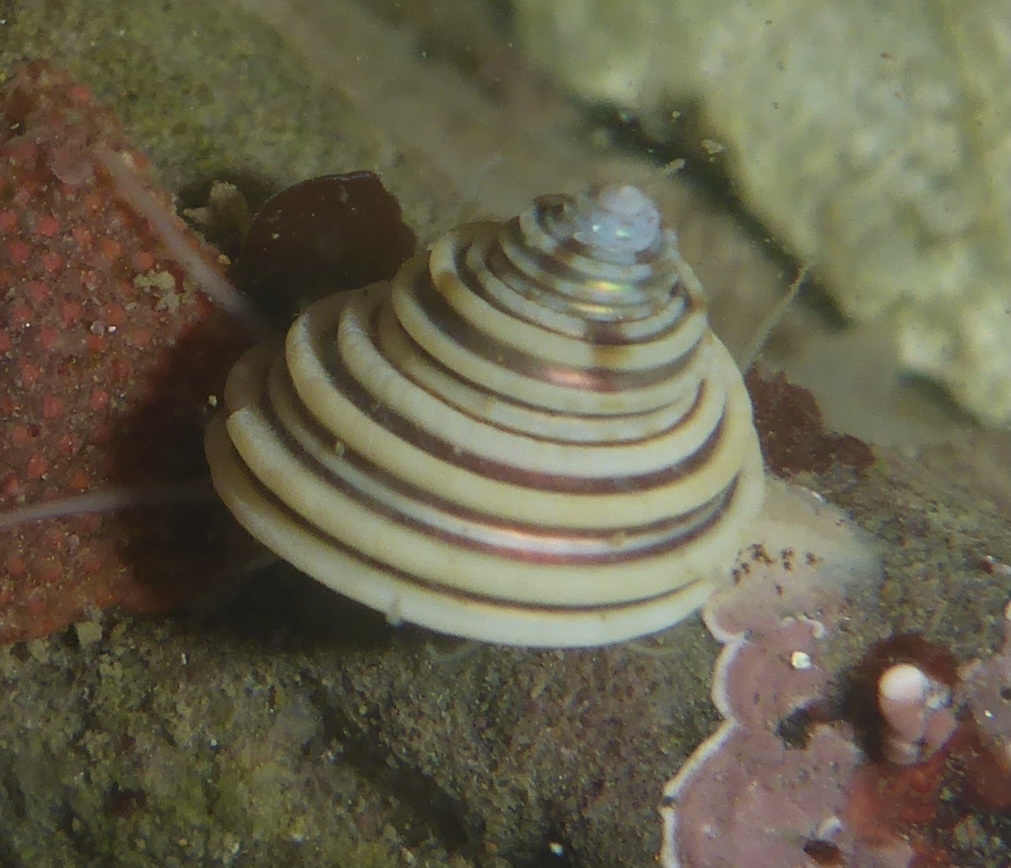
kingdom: Animalia
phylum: Mollusca
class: Gastropoda
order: Trochida
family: Calliostomatidae
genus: Calliostoma
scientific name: Calliostoma canaliculatum
